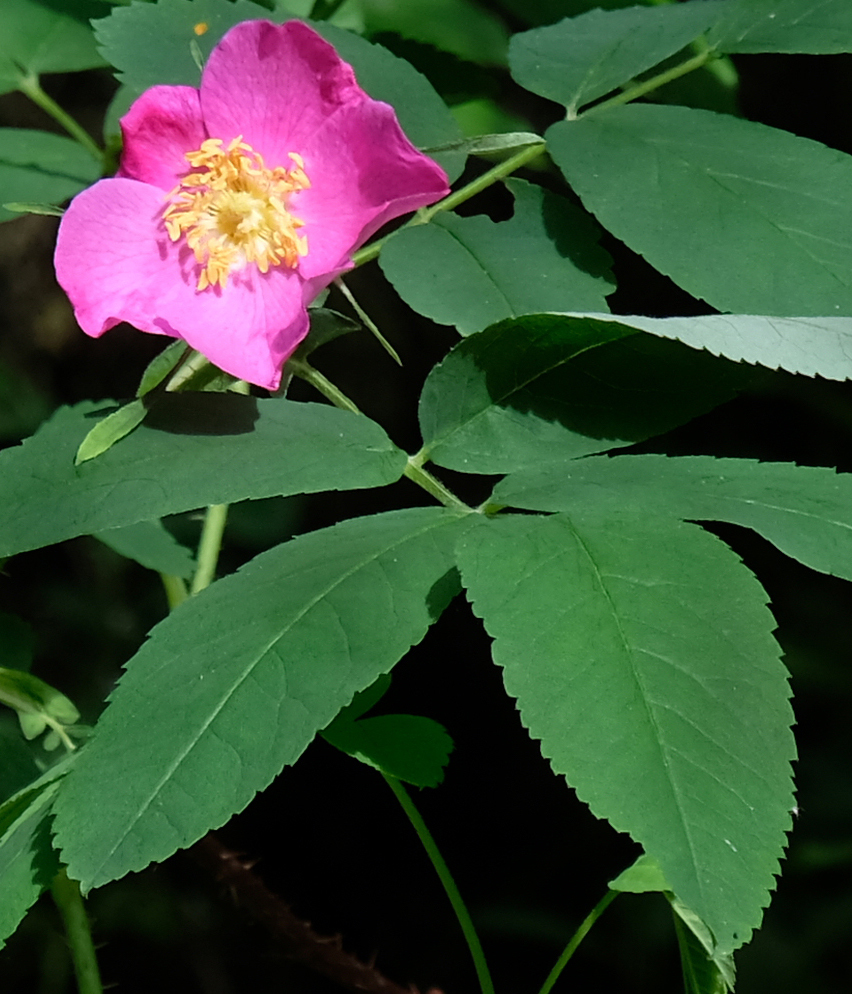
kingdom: Plantae
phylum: Tracheophyta
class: Magnoliopsida
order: Rosales
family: Rosaceae
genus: Rosa
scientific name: Rosa acicularis
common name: Prickly rose
